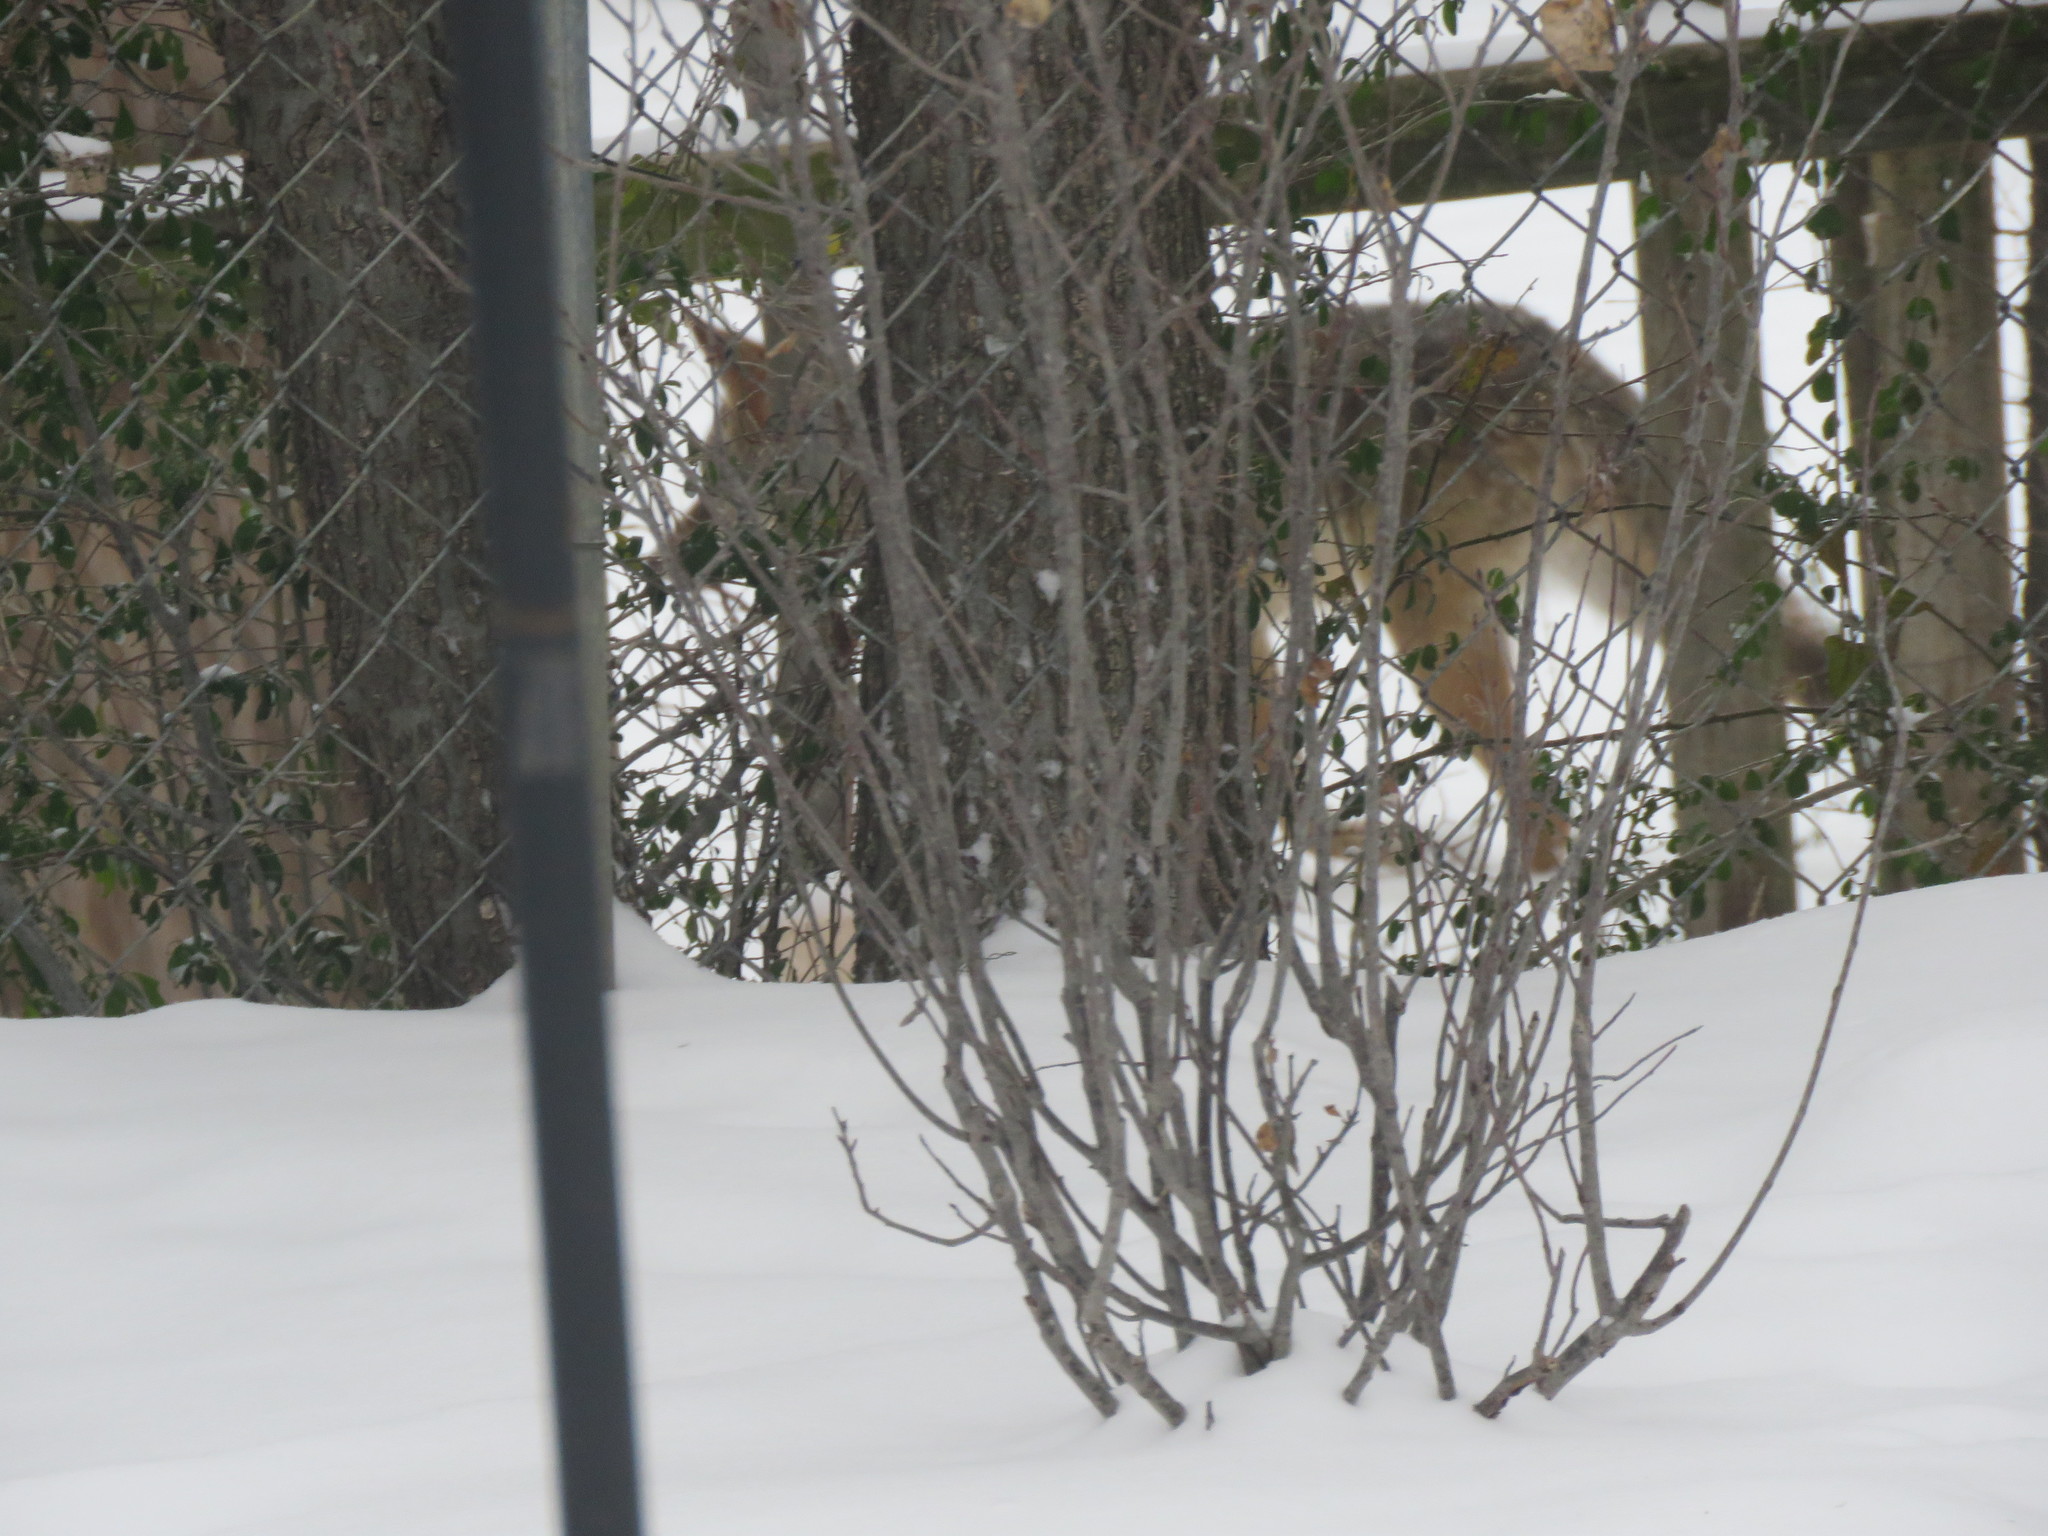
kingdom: Animalia
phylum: Chordata
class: Mammalia
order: Carnivora
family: Canidae
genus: Canis
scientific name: Canis latrans
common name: Coyote
